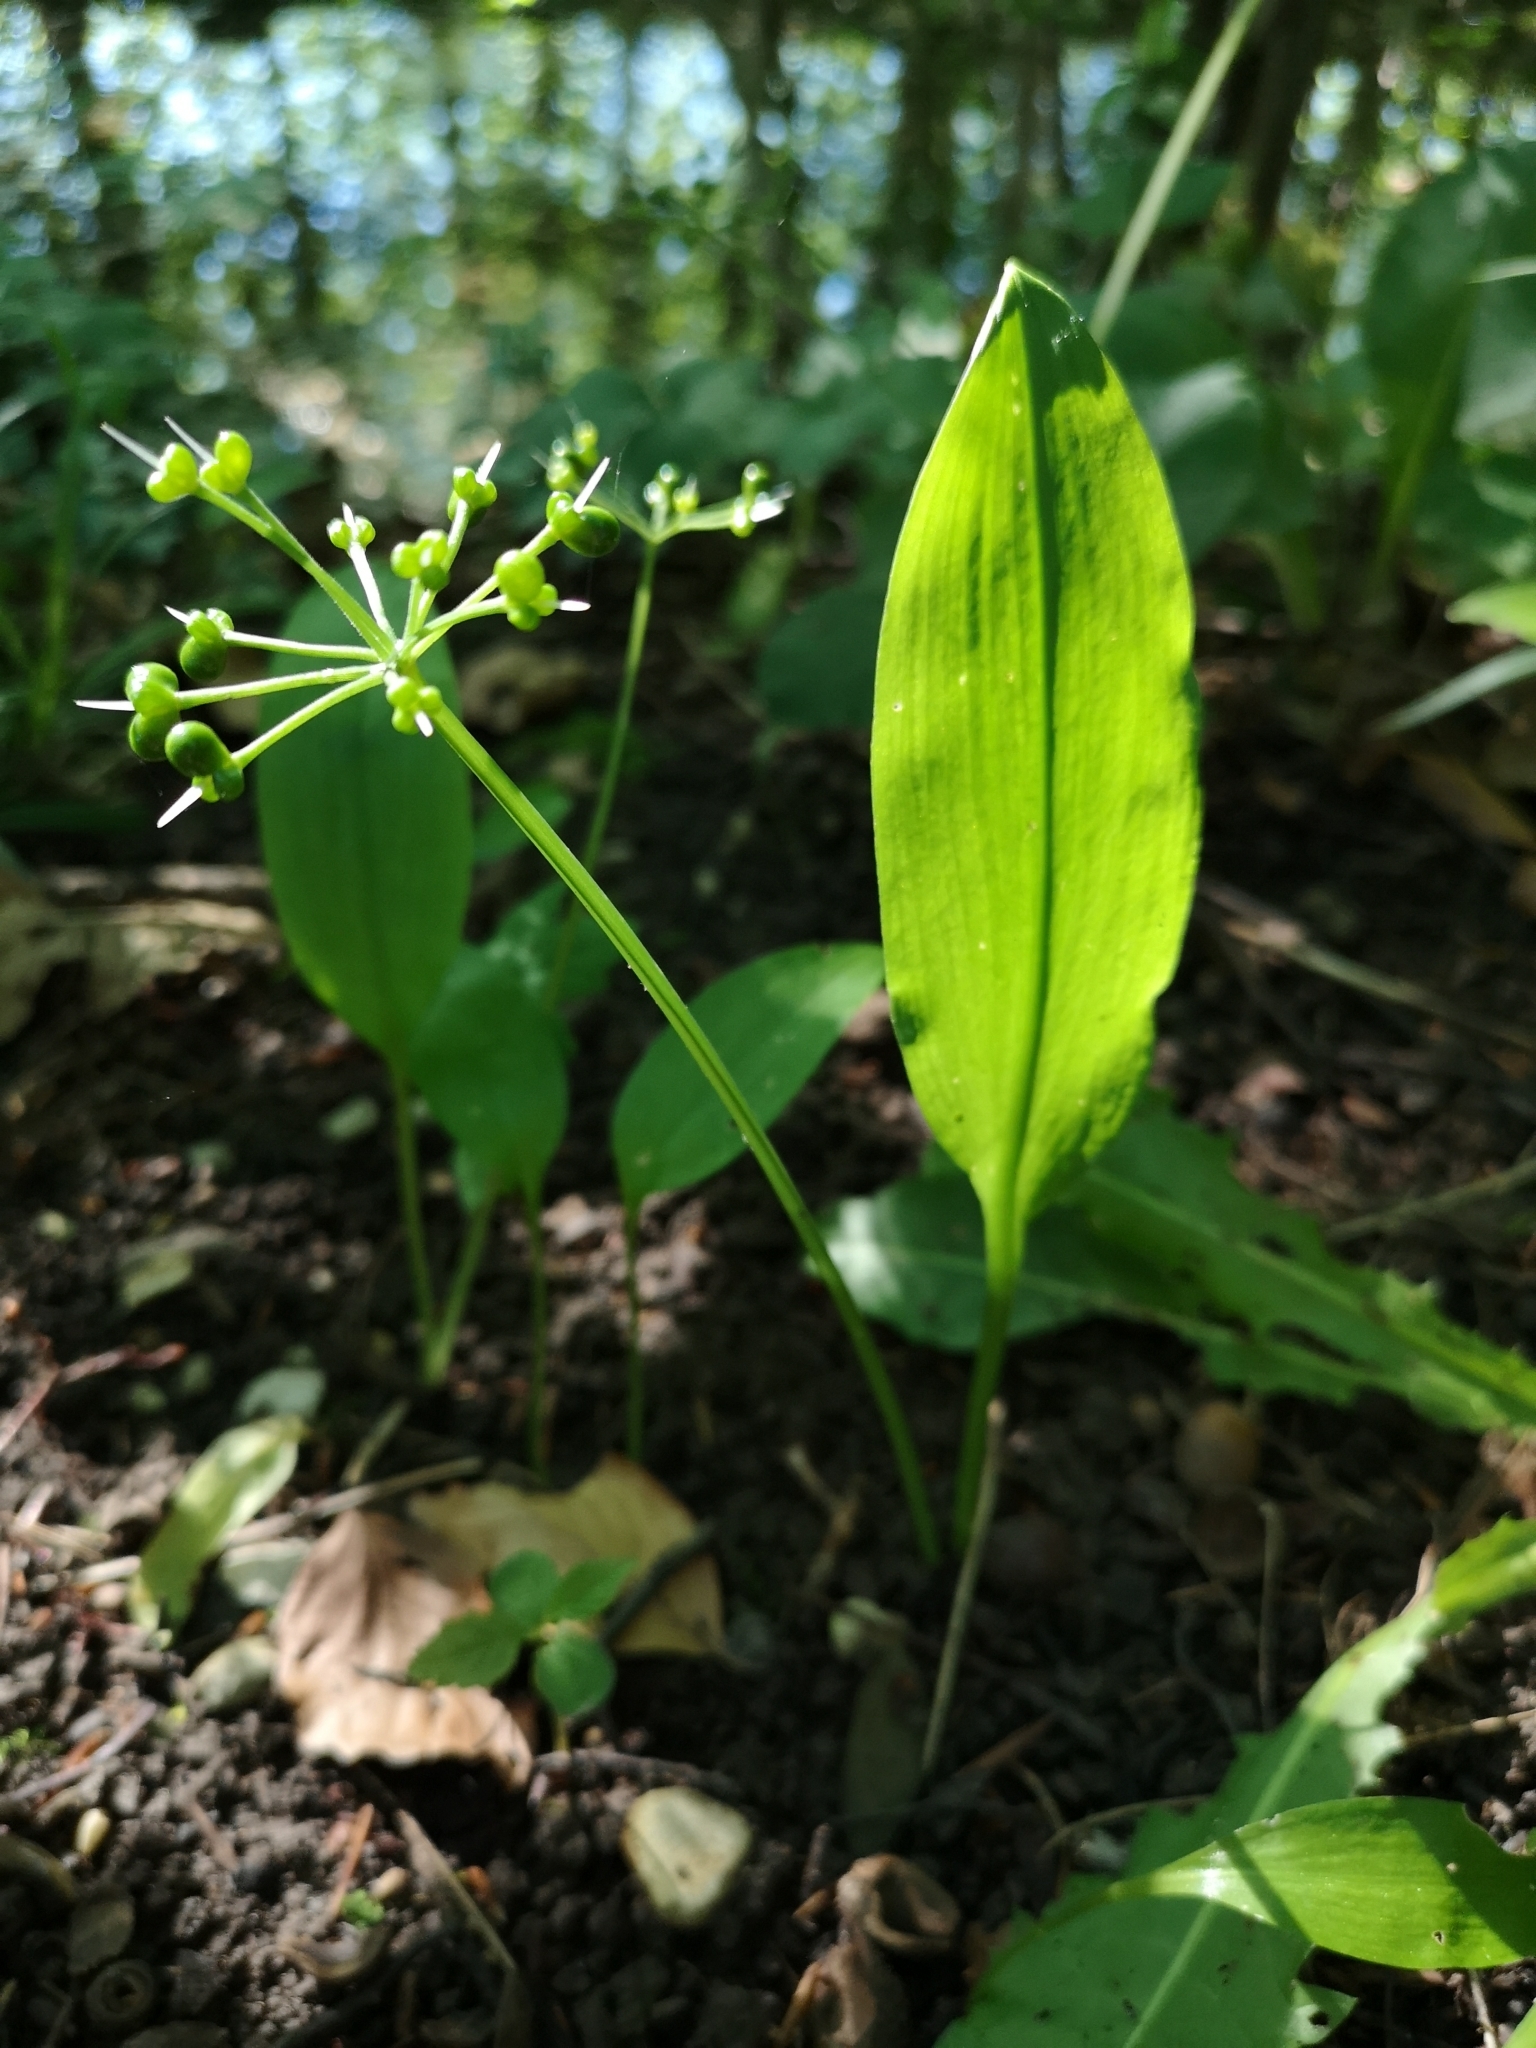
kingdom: Plantae
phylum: Tracheophyta
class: Liliopsida
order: Asparagales
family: Amaryllidaceae
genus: Allium
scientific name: Allium ursinum
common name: Ramsons
